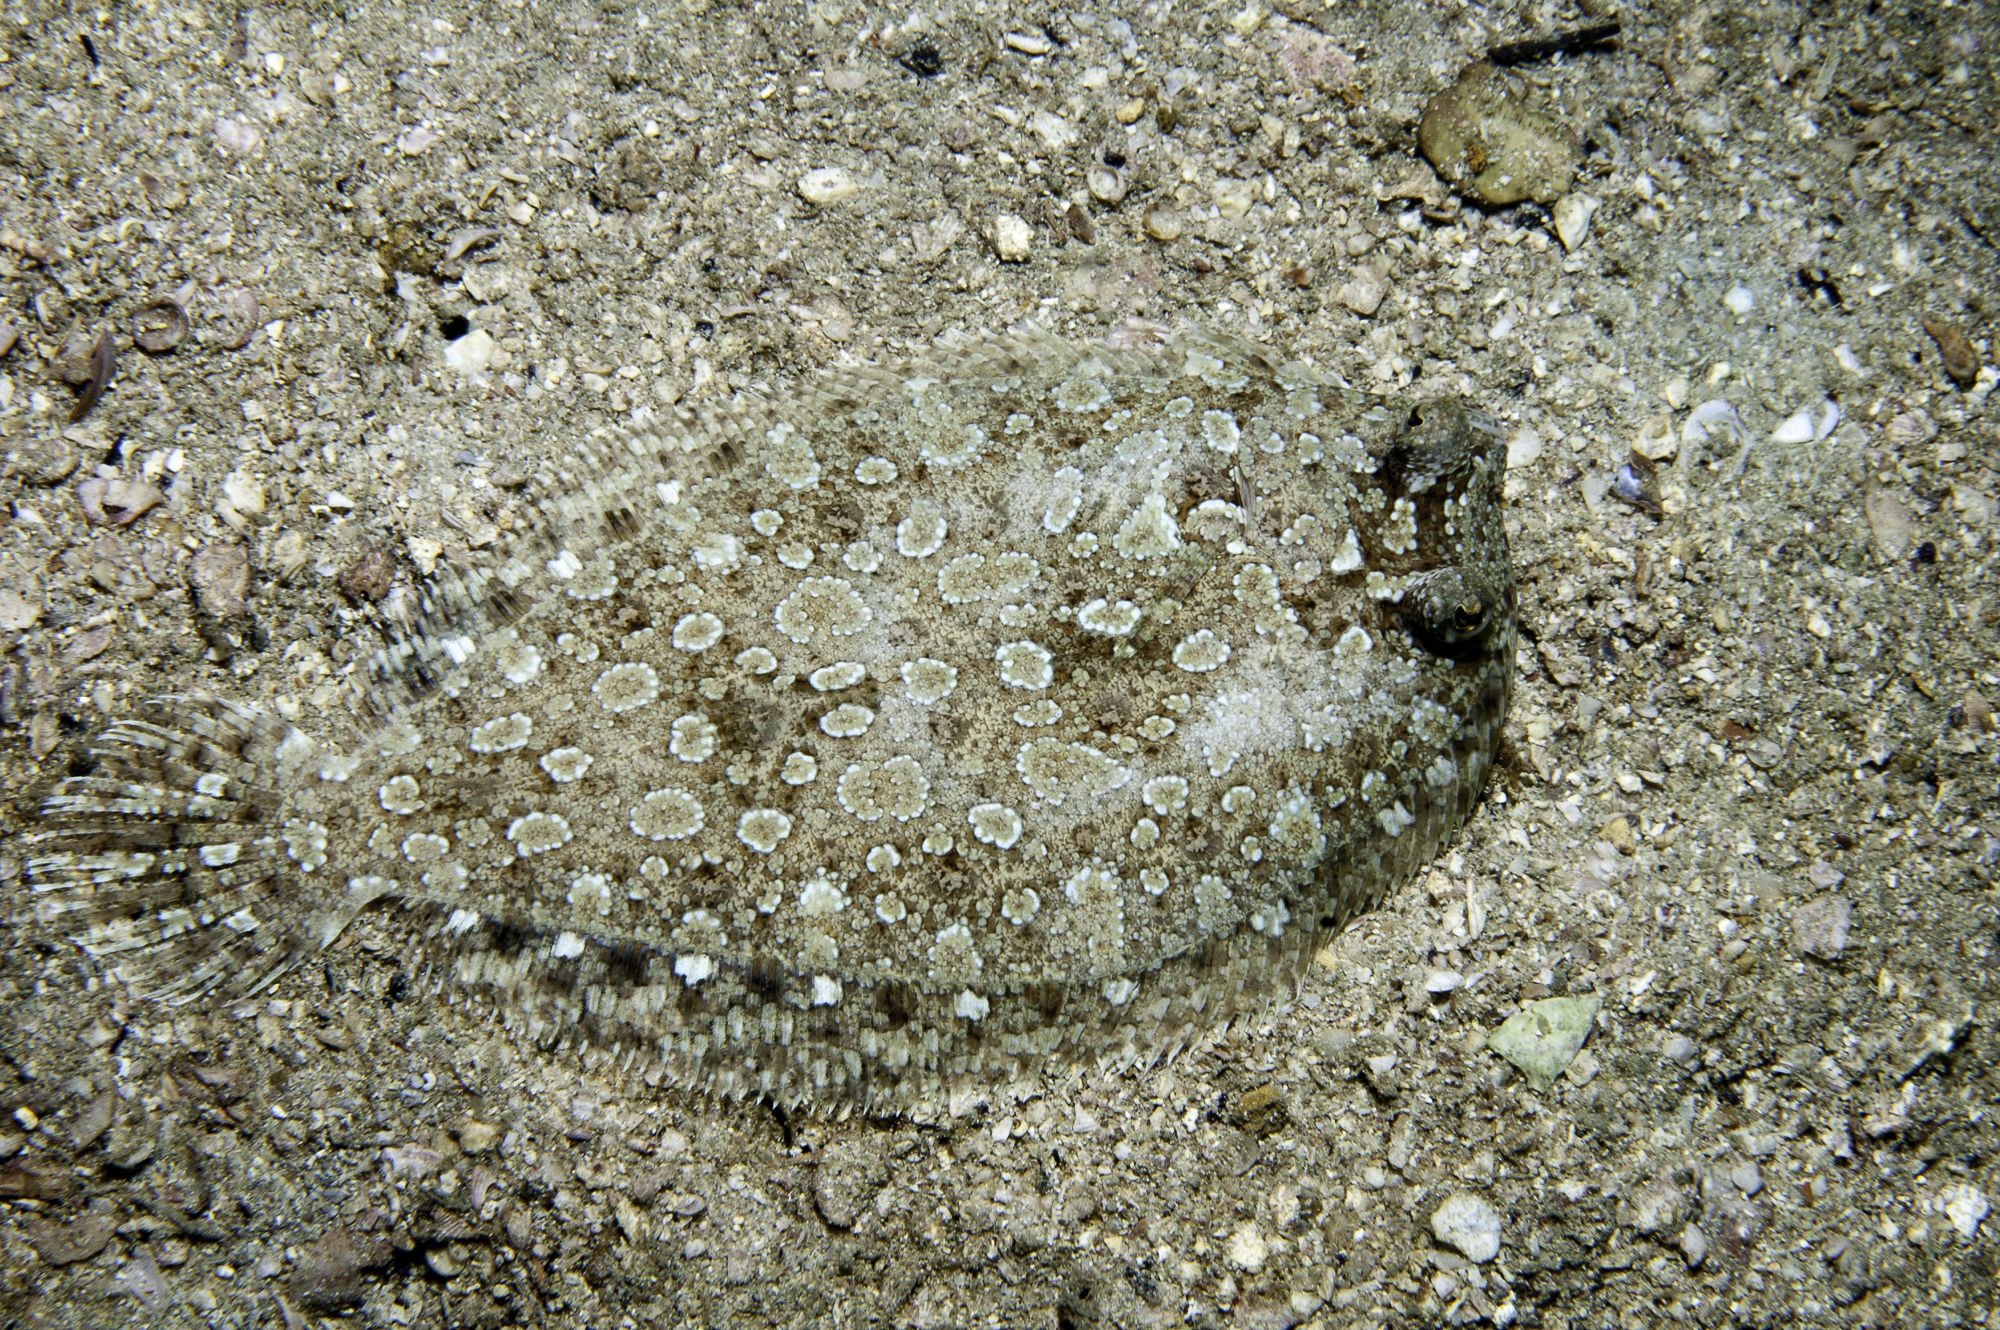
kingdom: Animalia
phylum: Chordata
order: Pleuronectiformes
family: Bothidae
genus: Bothus
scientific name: Bothus ocellatus
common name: Eyed flounder
